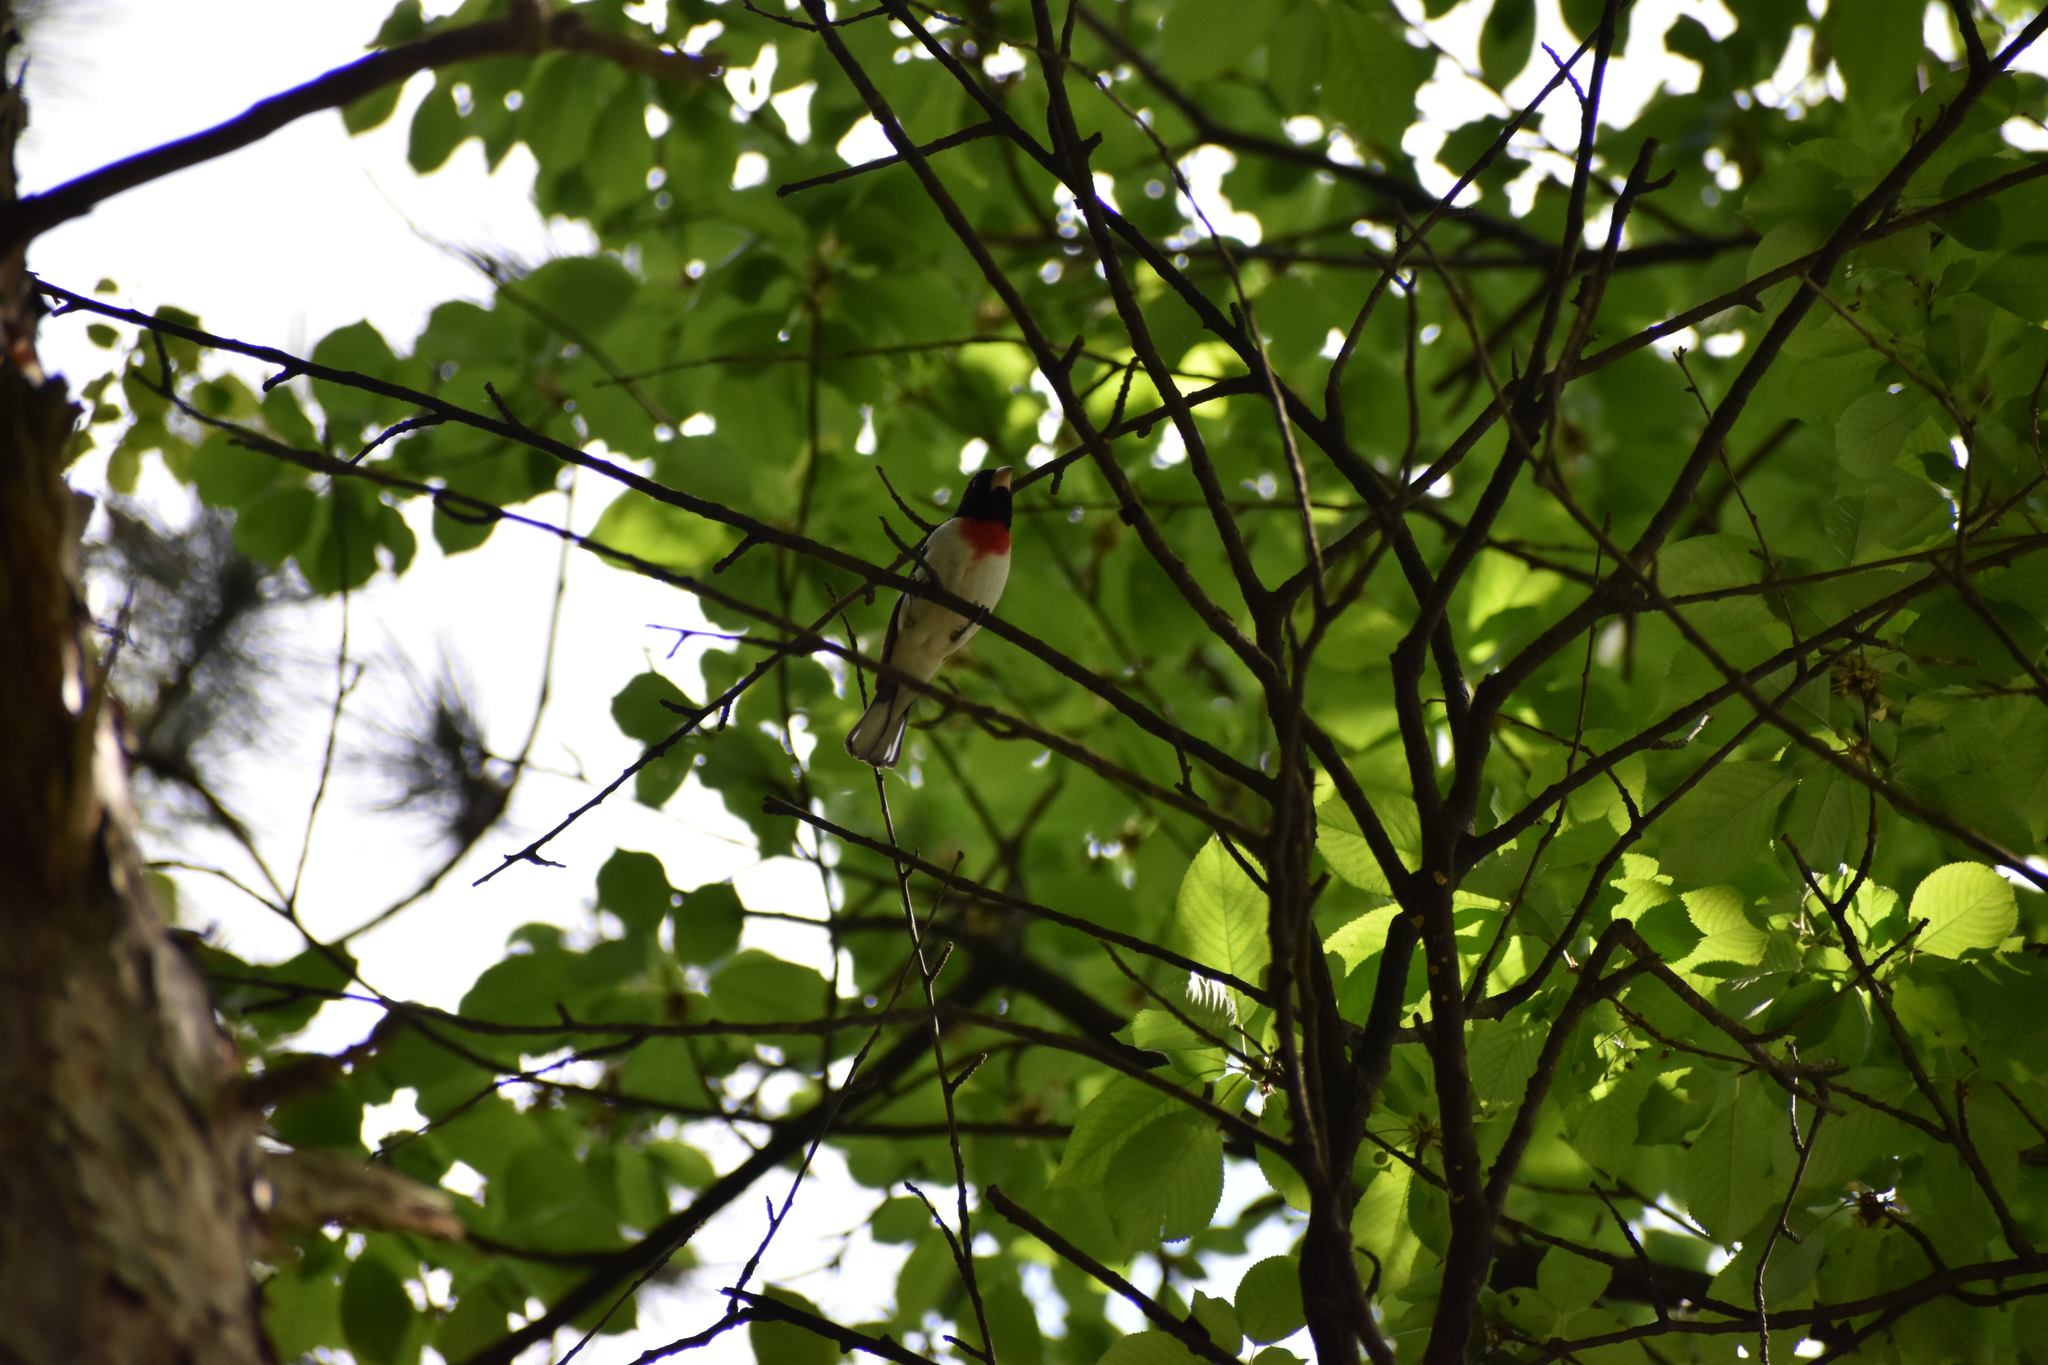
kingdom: Animalia
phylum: Chordata
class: Aves
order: Passeriformes
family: Cardinalidae
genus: Pheucticus
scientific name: Pheucticus ludovicianus
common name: Rose-breasted grosbeak
